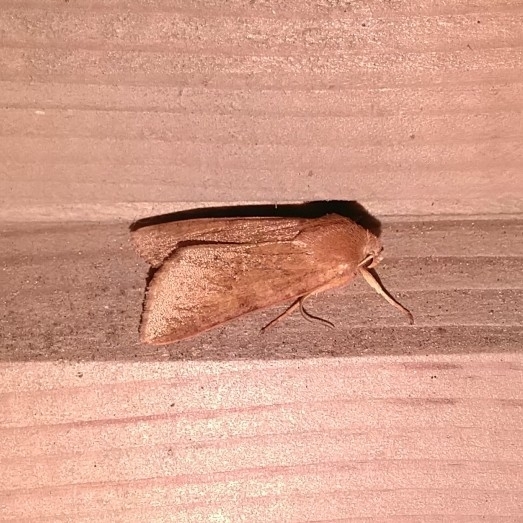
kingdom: Animalia
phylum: Arthropoda
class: Insecta
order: Lepidoptera
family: Noctuidae
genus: Agrochola
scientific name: Agrochola helvola
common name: Flounced chestnut
